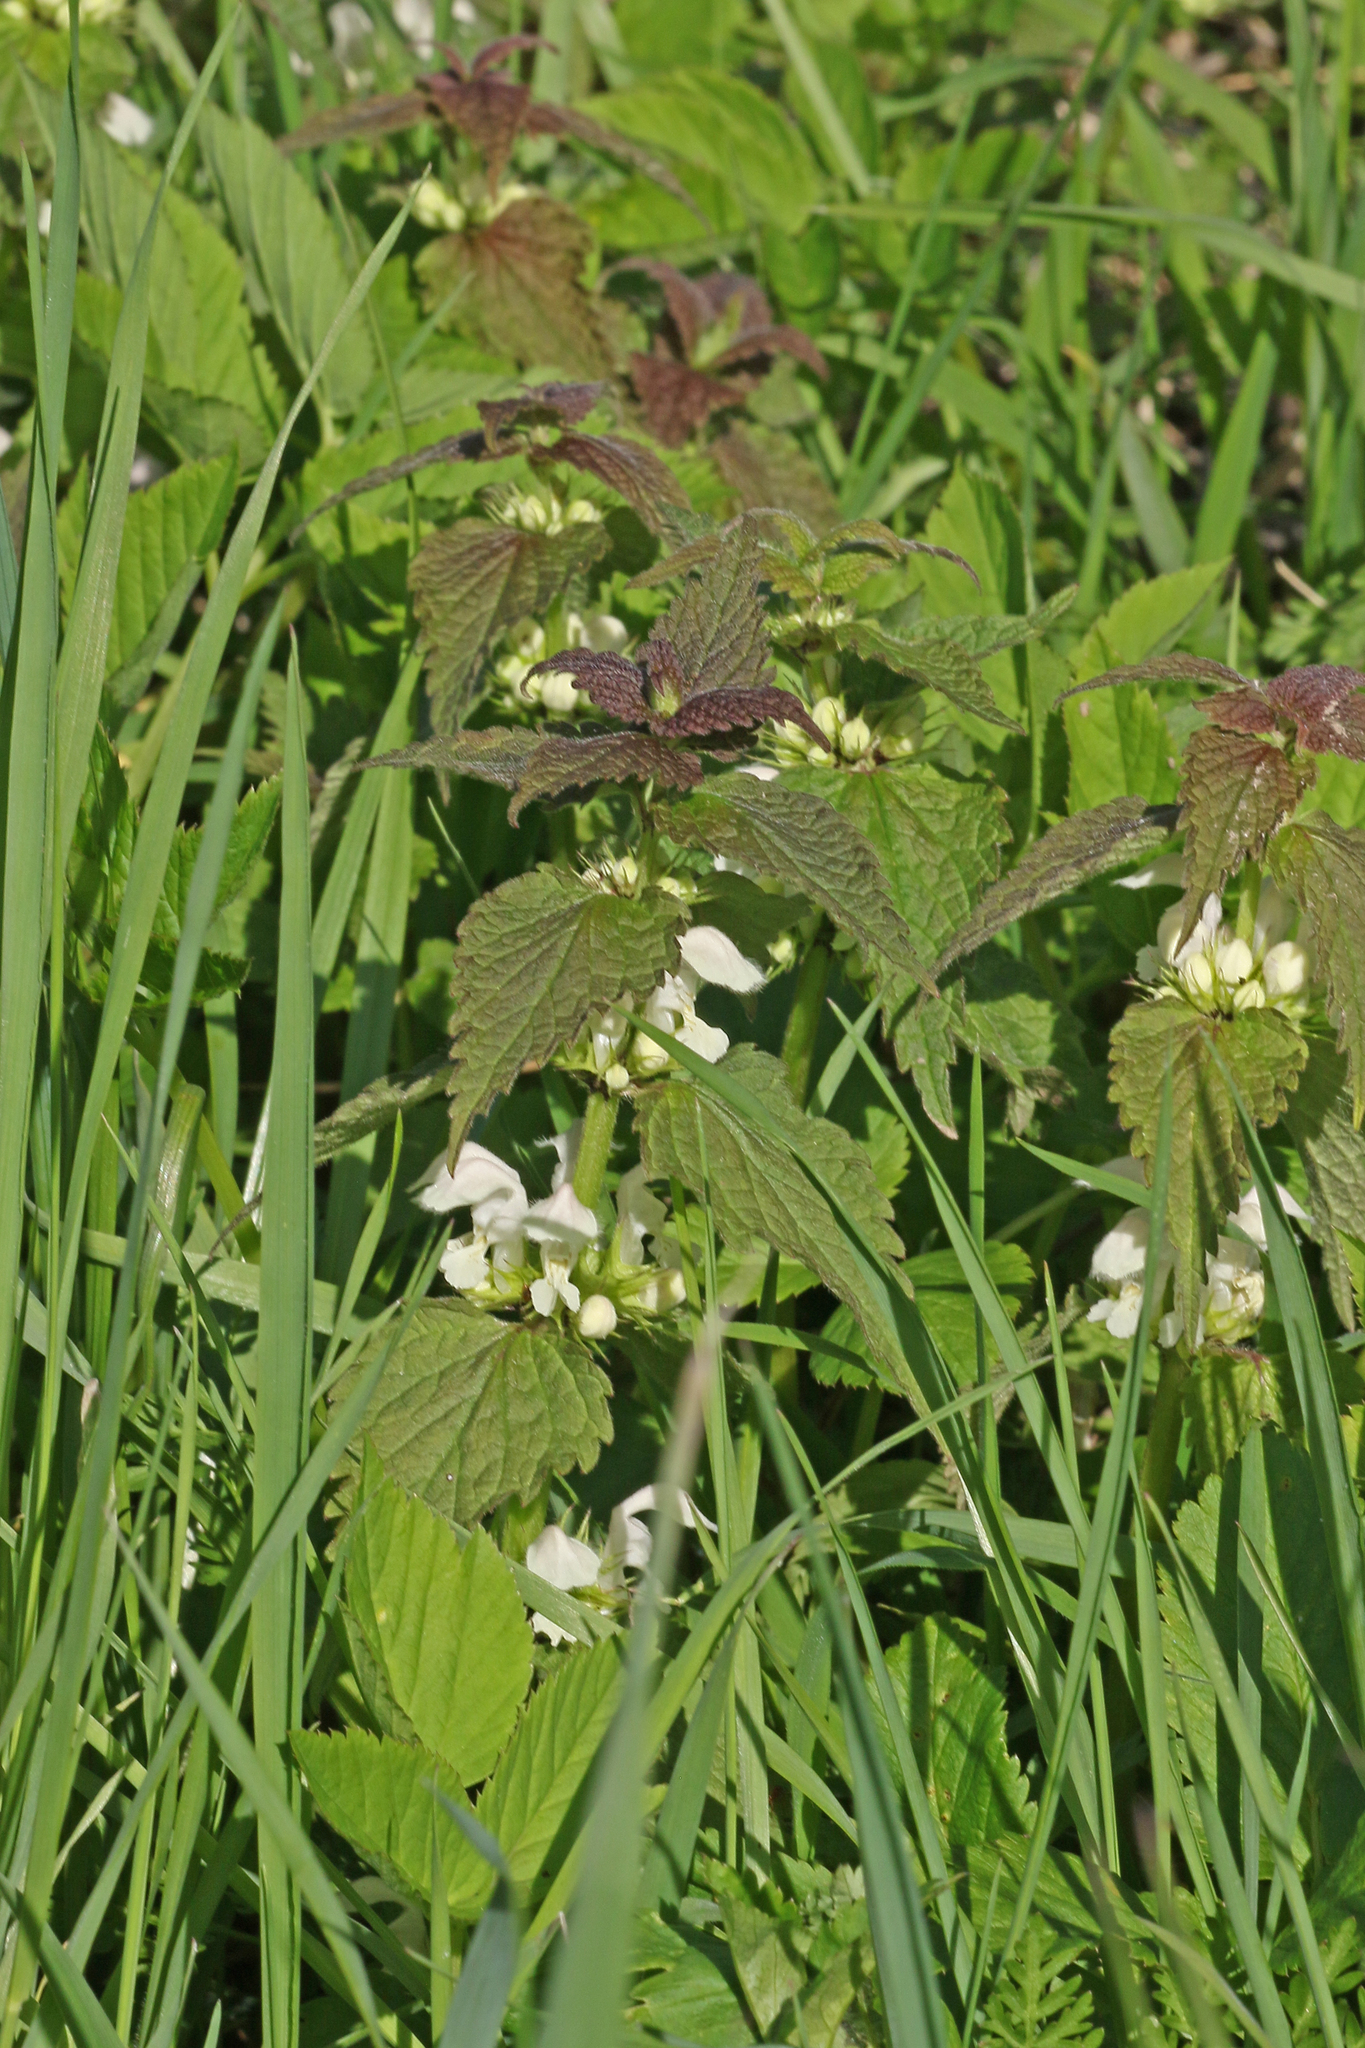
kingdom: Plantae
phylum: Tracheophyta
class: Magnoliopsida
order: Lamiales
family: Lamiaceae
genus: Lamium
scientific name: Lamium album
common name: White dead-nettle
